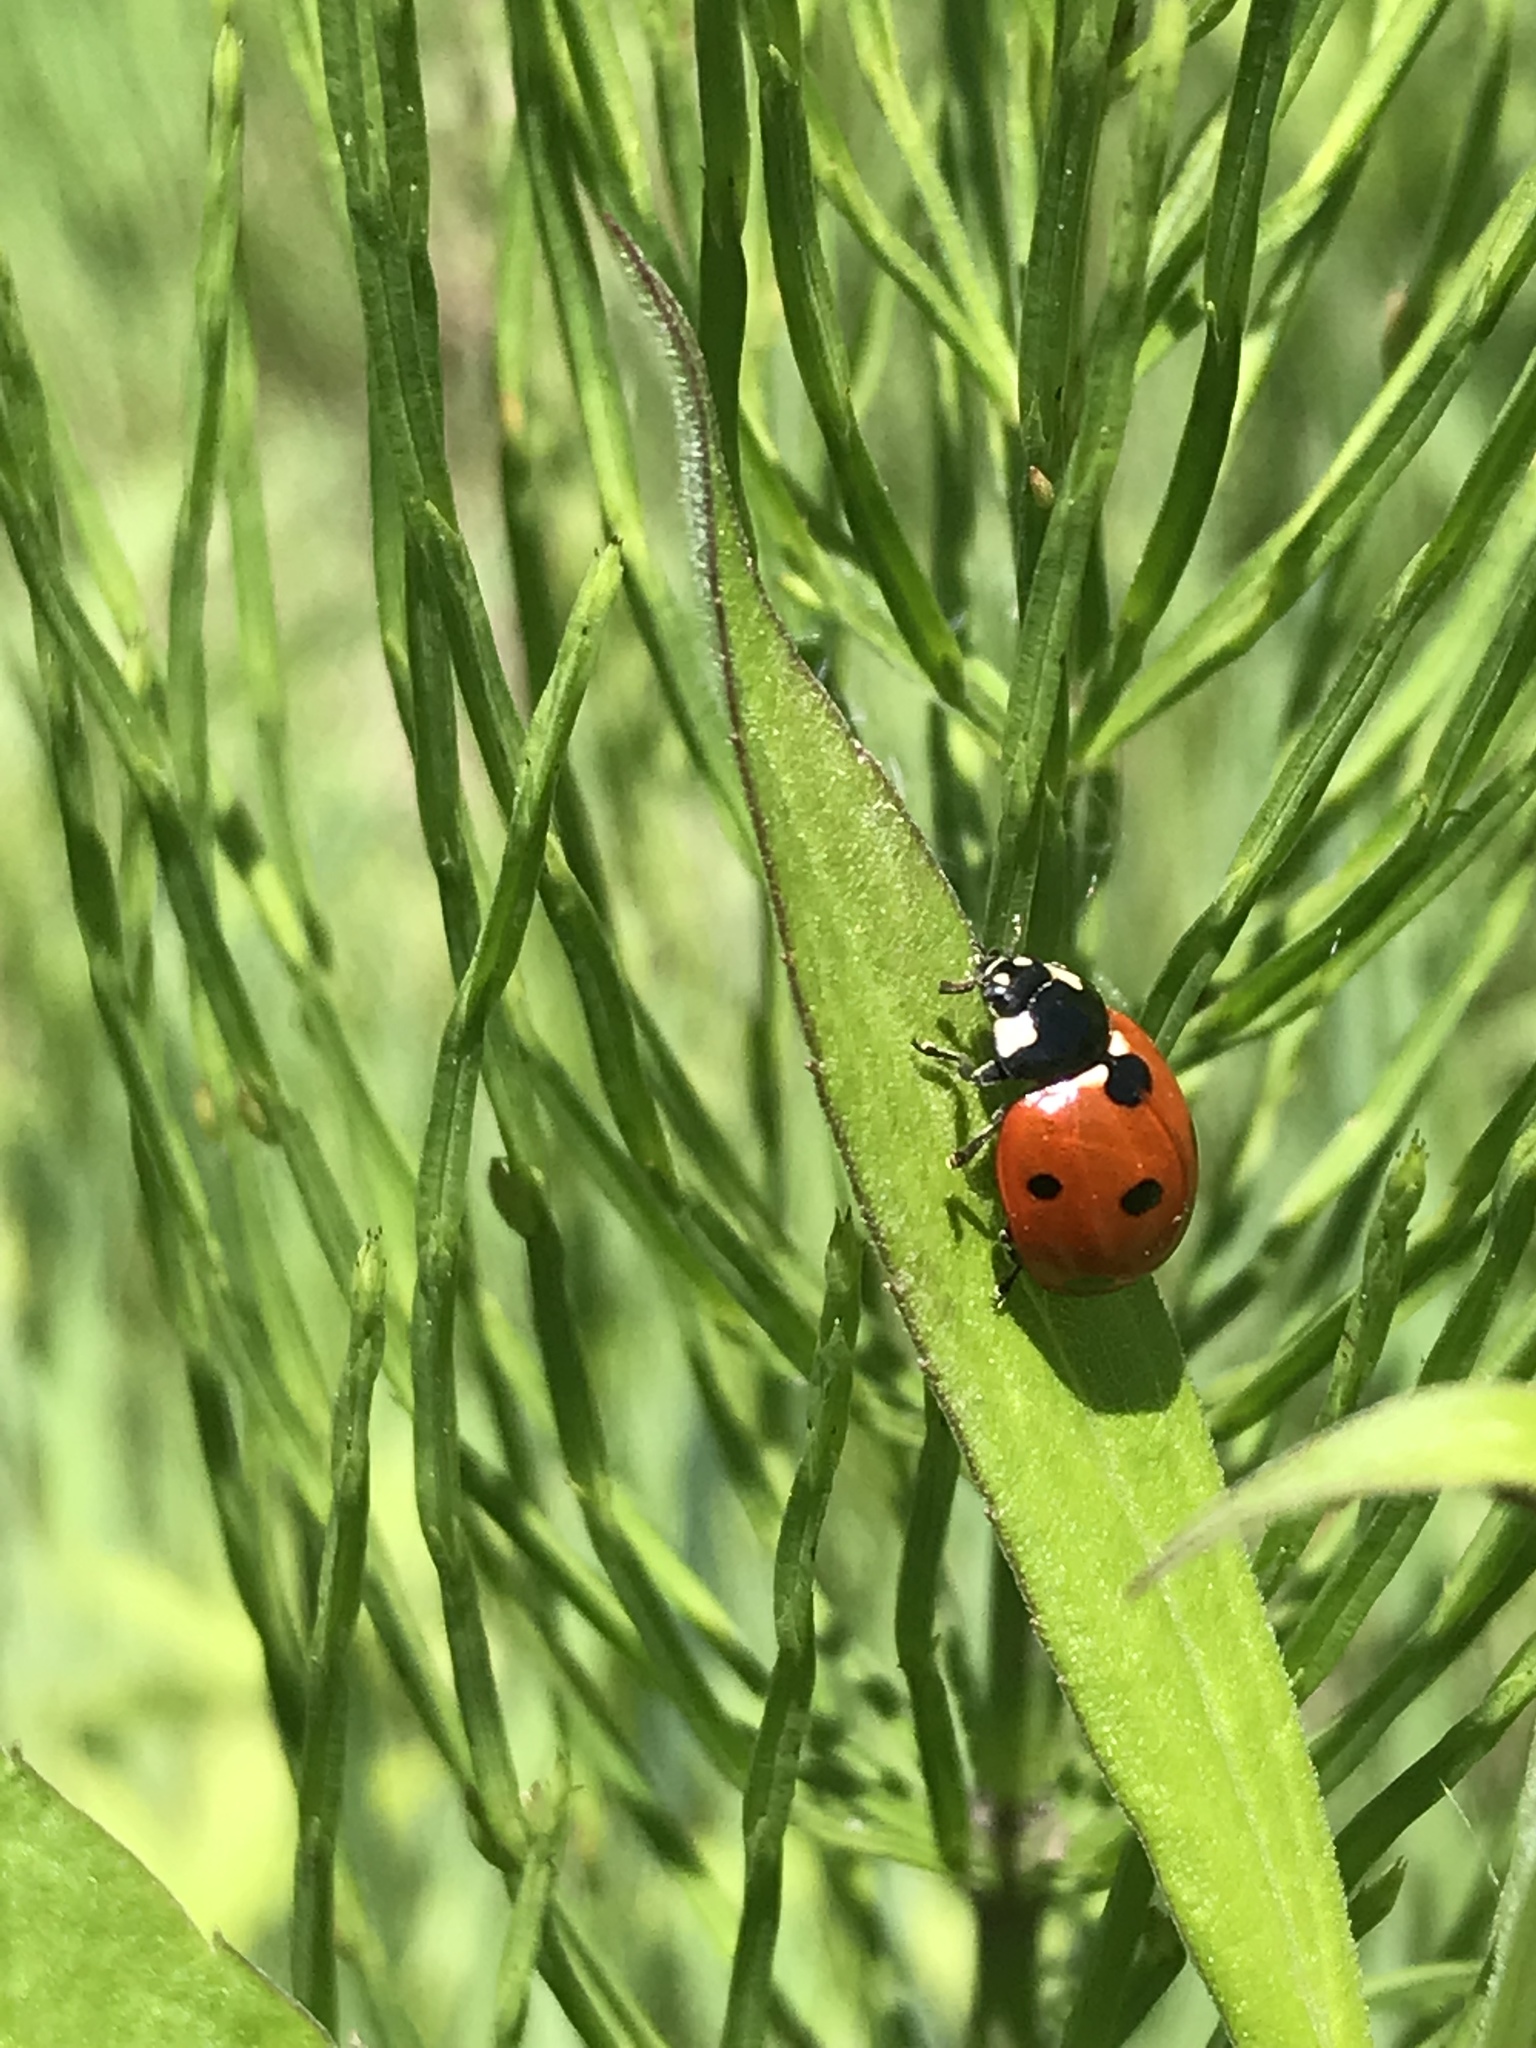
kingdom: Animalia
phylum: Arthropoda
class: Insecta
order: Coleoptera
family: Coccinellidae
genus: Coccinella
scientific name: Coccinella septempunctata
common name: Sevenspotted lady beetle
